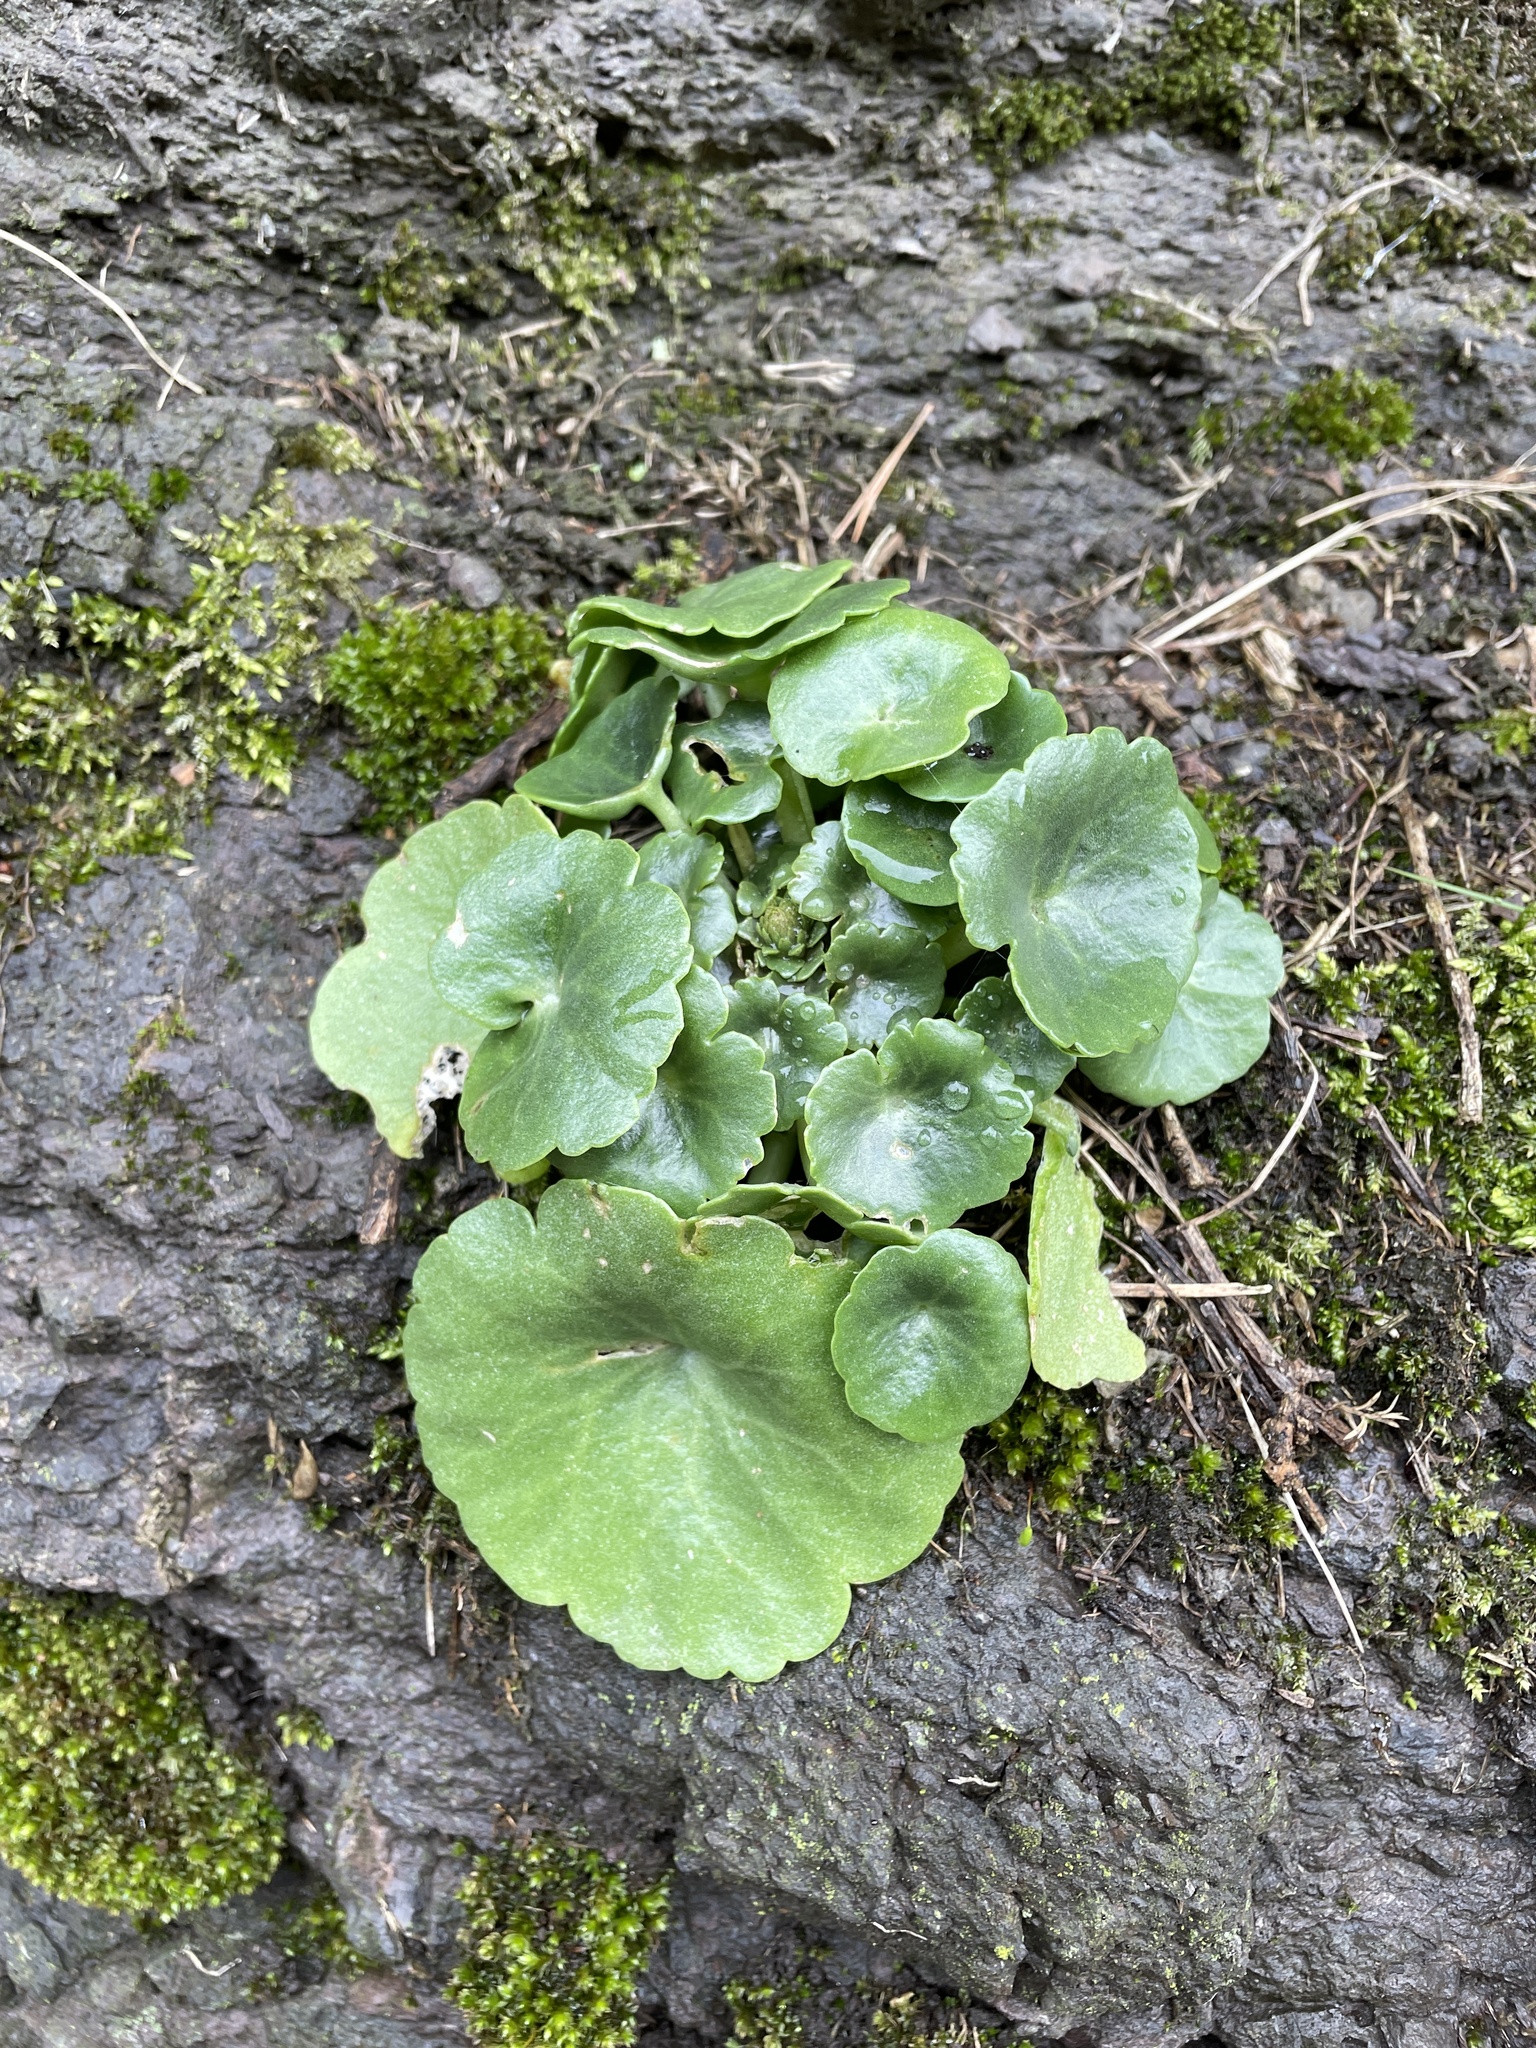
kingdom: Plantae
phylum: Tracheophyta
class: Magnoliopsida
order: Saxifragales
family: Crassulaceae
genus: Umbilicus
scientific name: Umbilicus rupestris
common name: Navelwort
